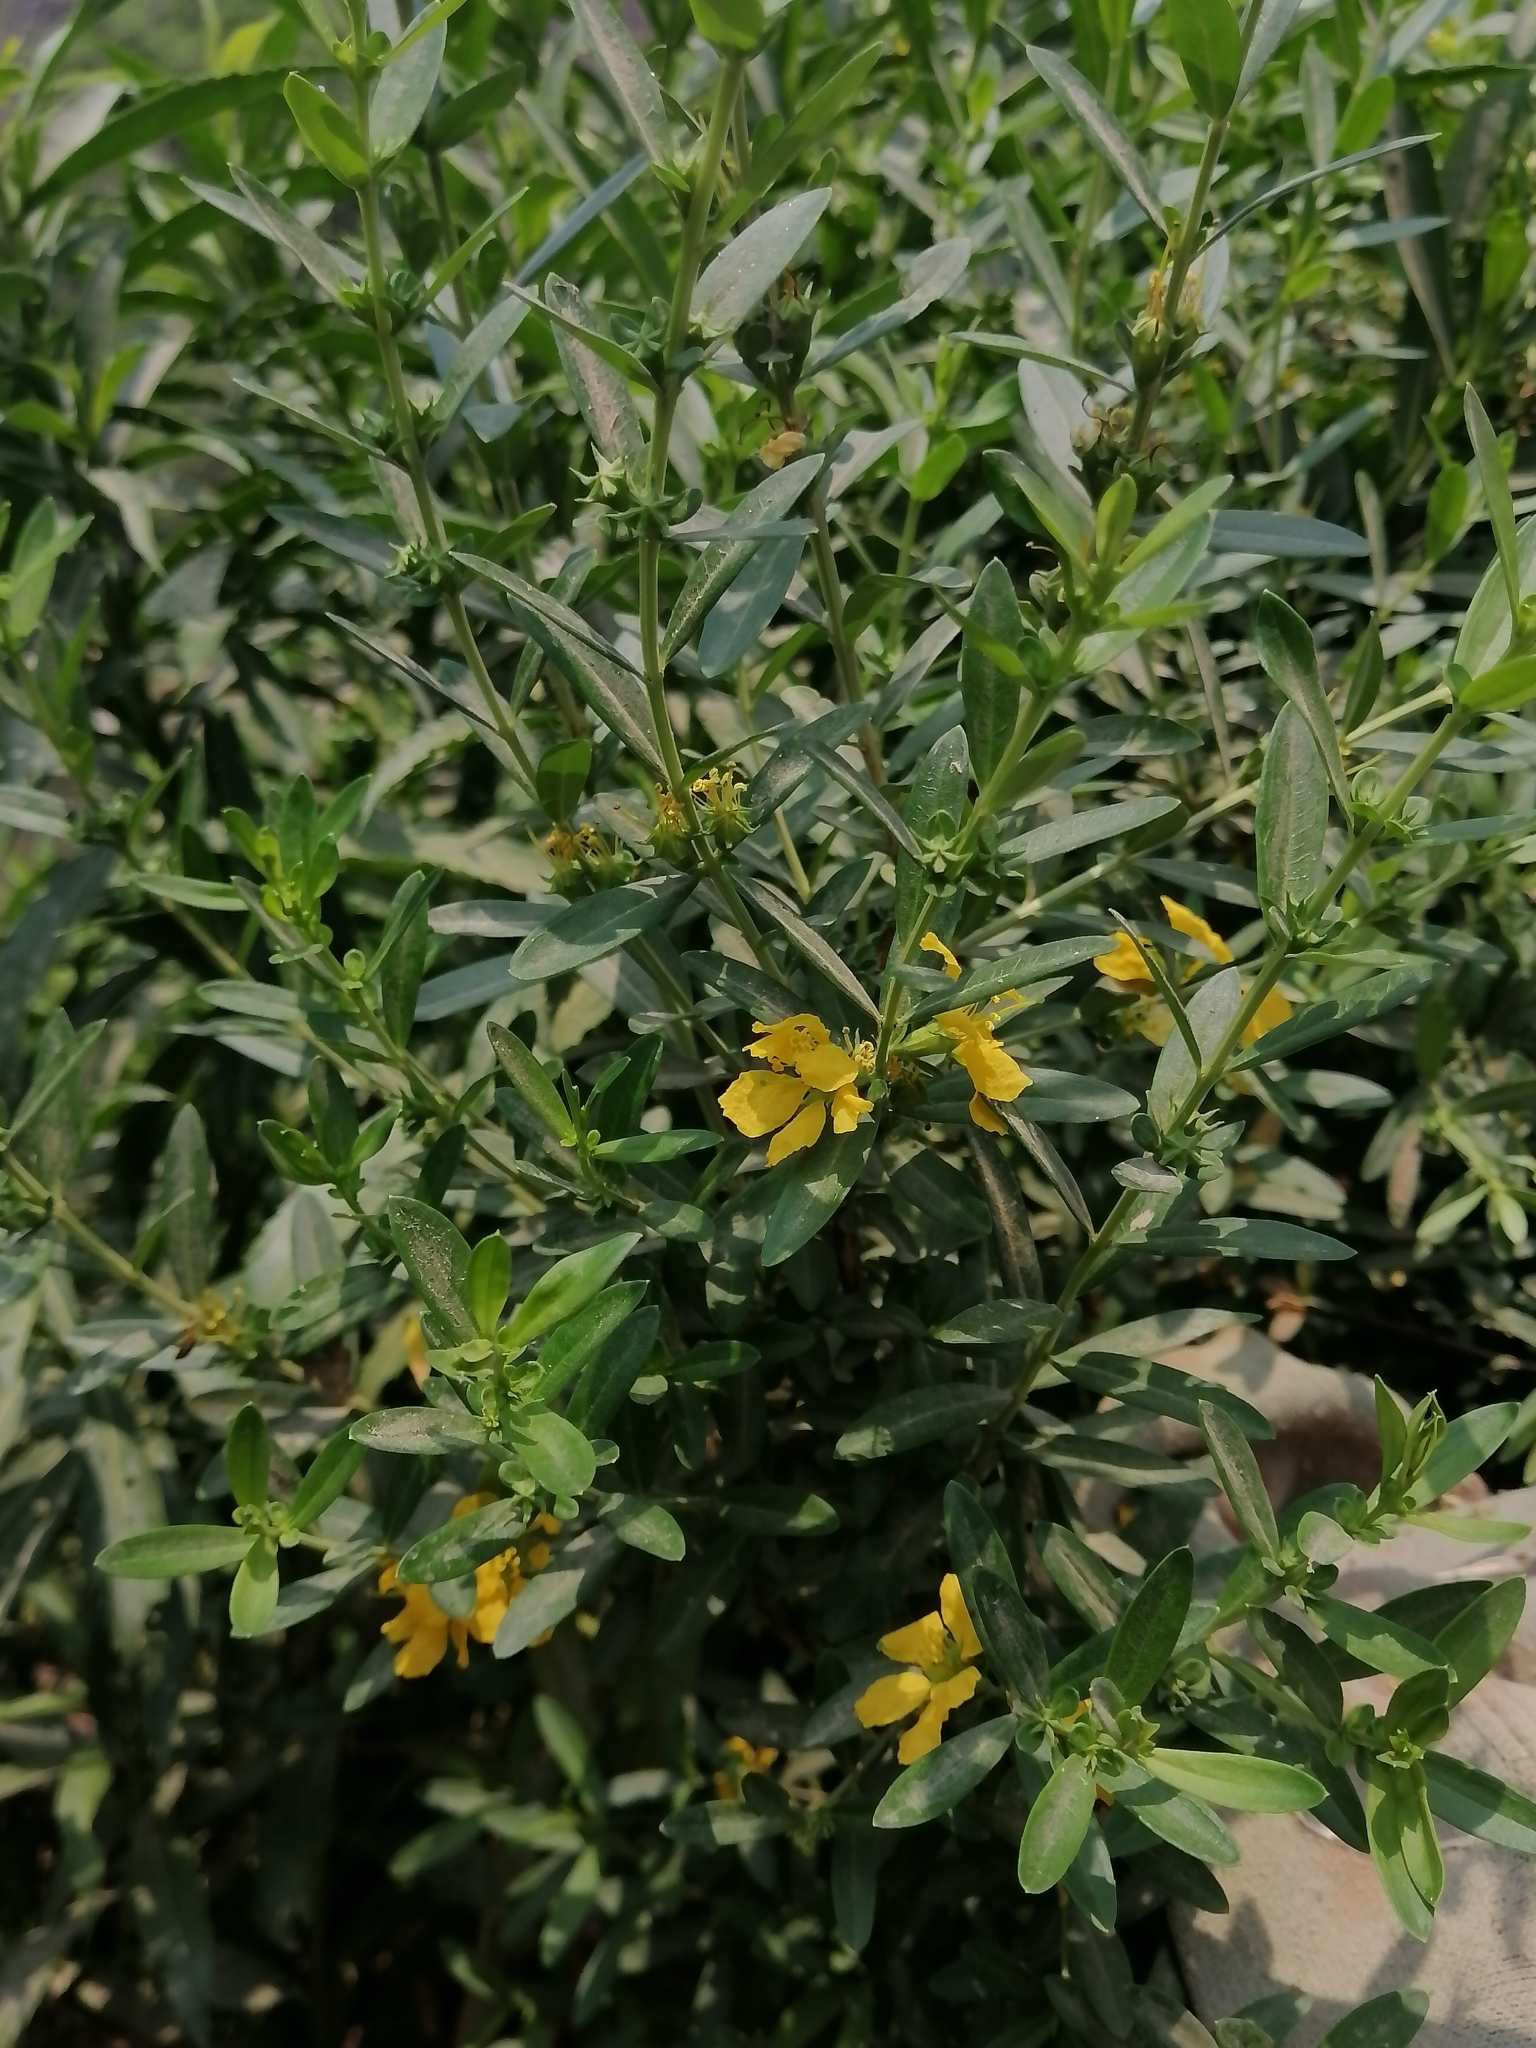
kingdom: Plantae
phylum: Tracheophyta
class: Magnoliopsida
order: Myrtales
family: Lythraceae
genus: Heimia
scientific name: Heimia salicifolia
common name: Willow-leaf heimia
